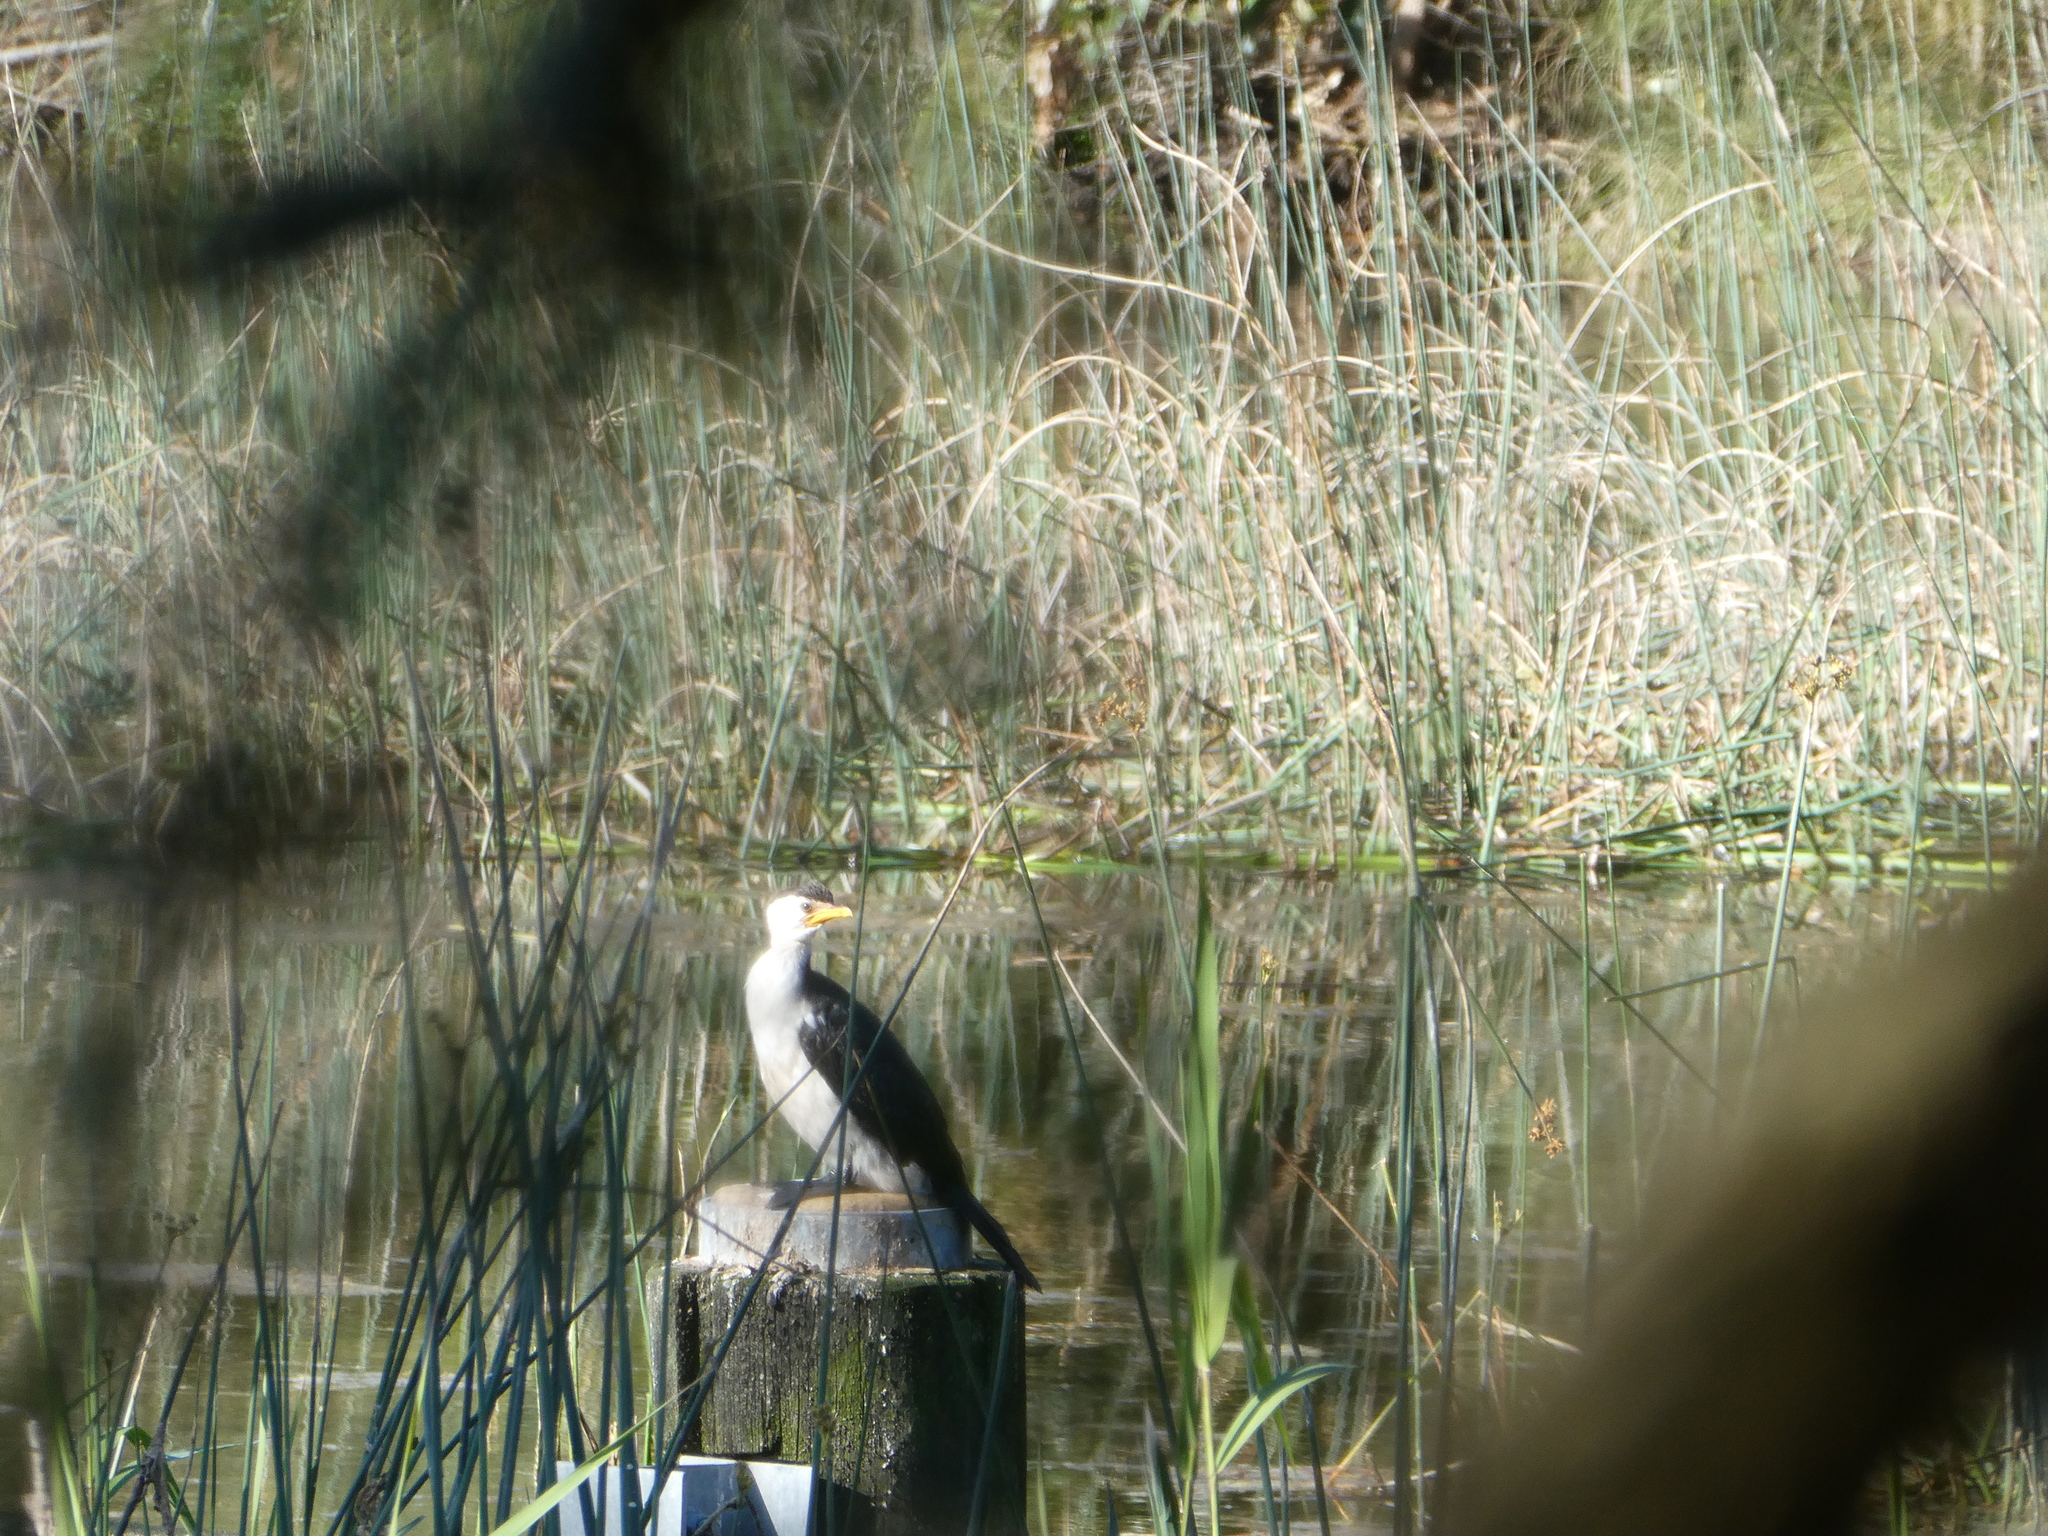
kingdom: Animalia
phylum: Chordata
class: Aves
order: Suliformes
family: Phalacrocoracidae
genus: Microcarbo
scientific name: Microcarbo melanoleucos
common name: Little pied cormorant
